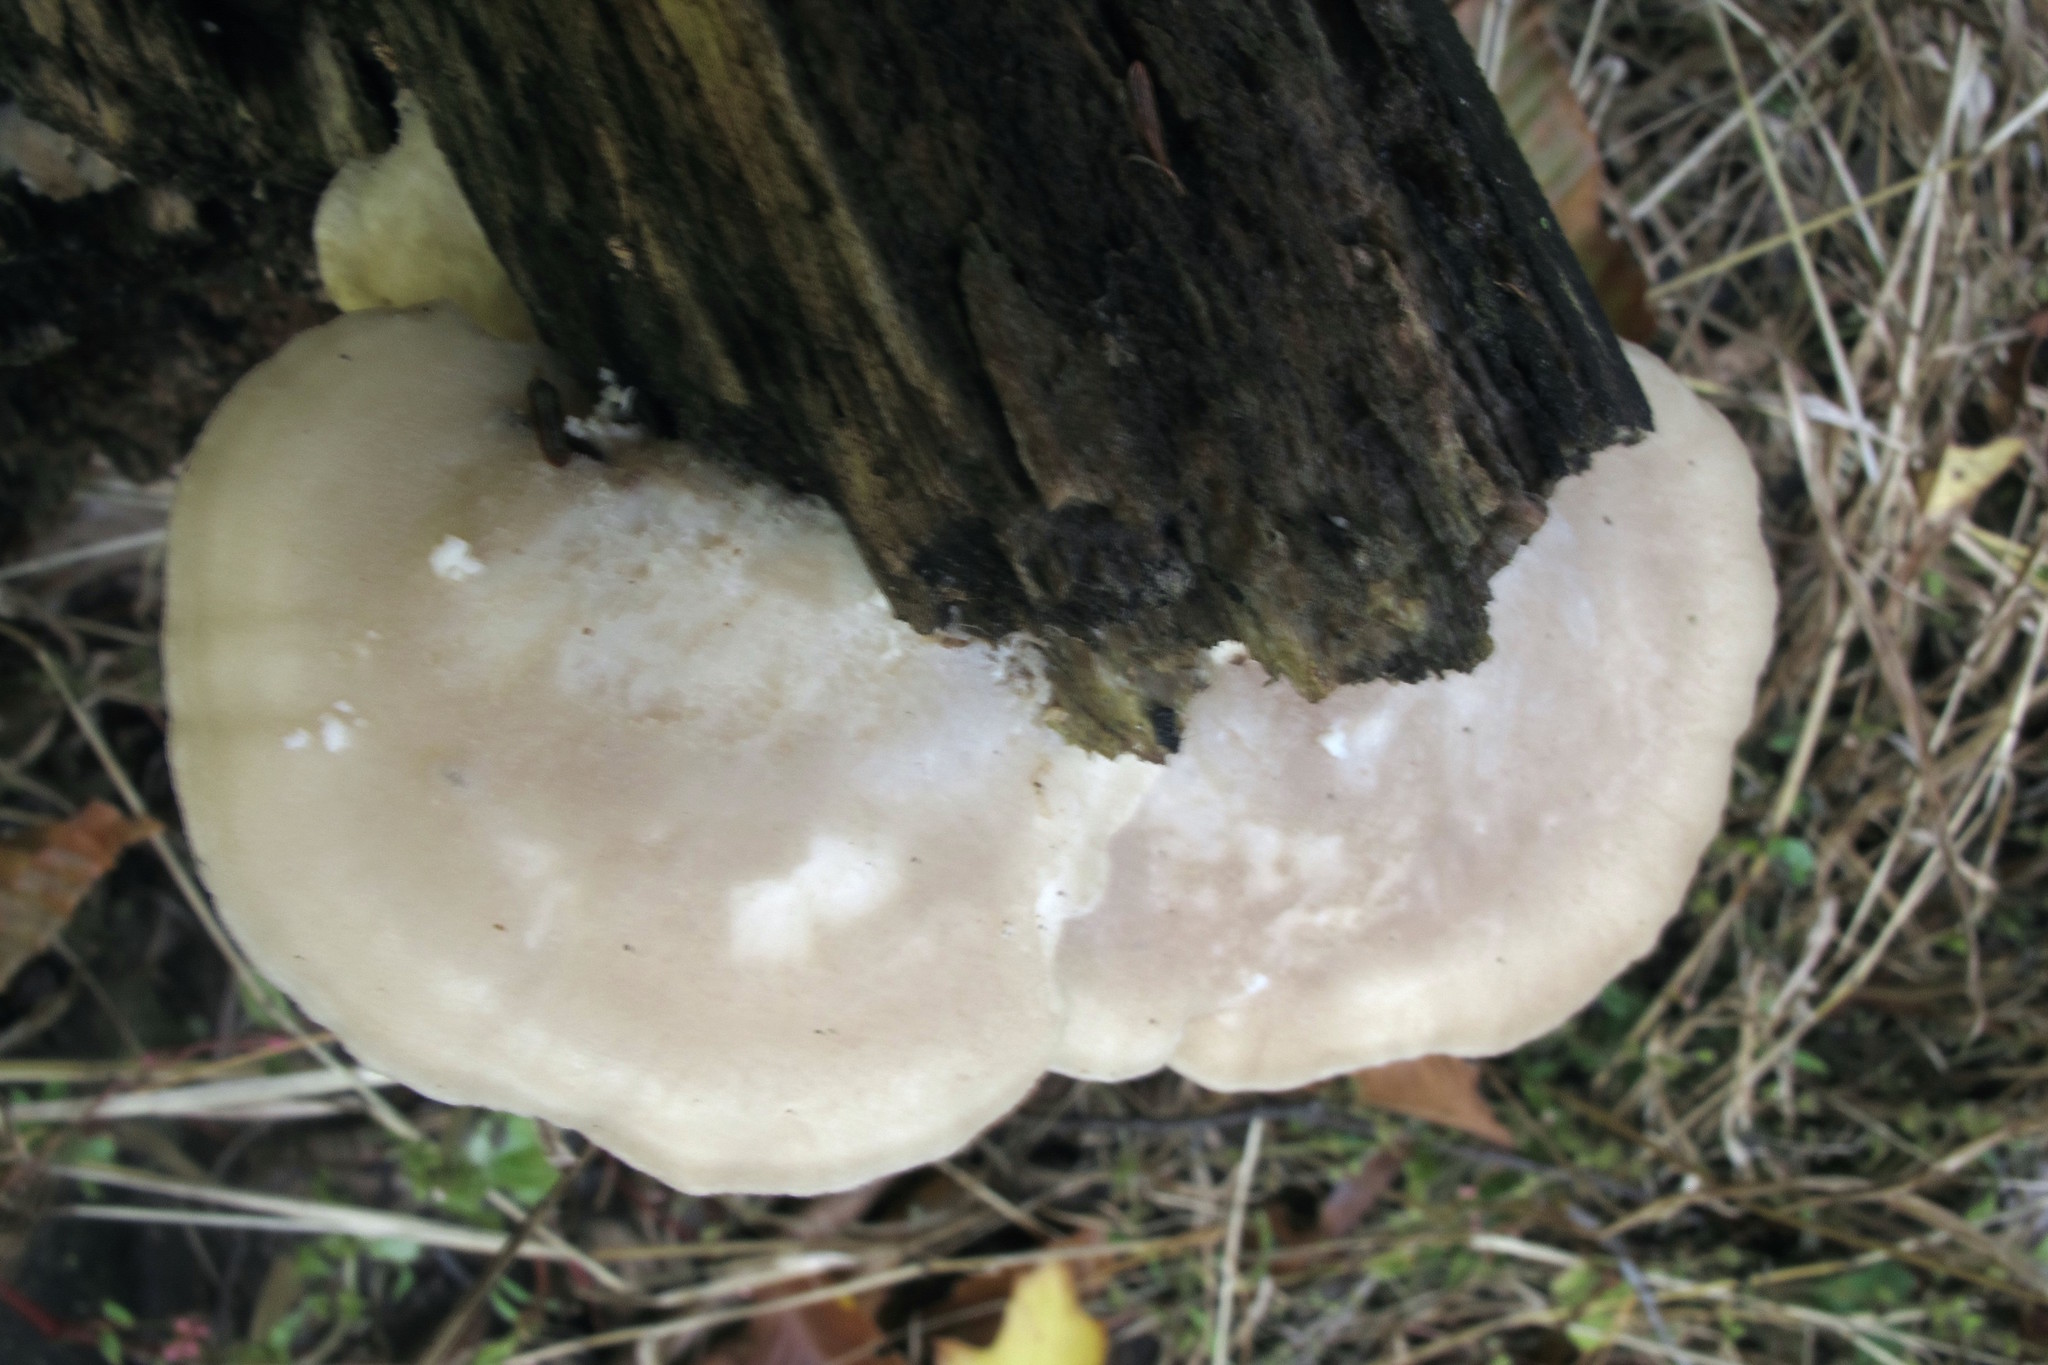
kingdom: Fungi
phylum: Basidiomycota
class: Agaricomycetes
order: Polyporales
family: Incrustoporiaceae
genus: Tyromyces
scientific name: Tyromyces chioneus
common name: White cheese polypore
